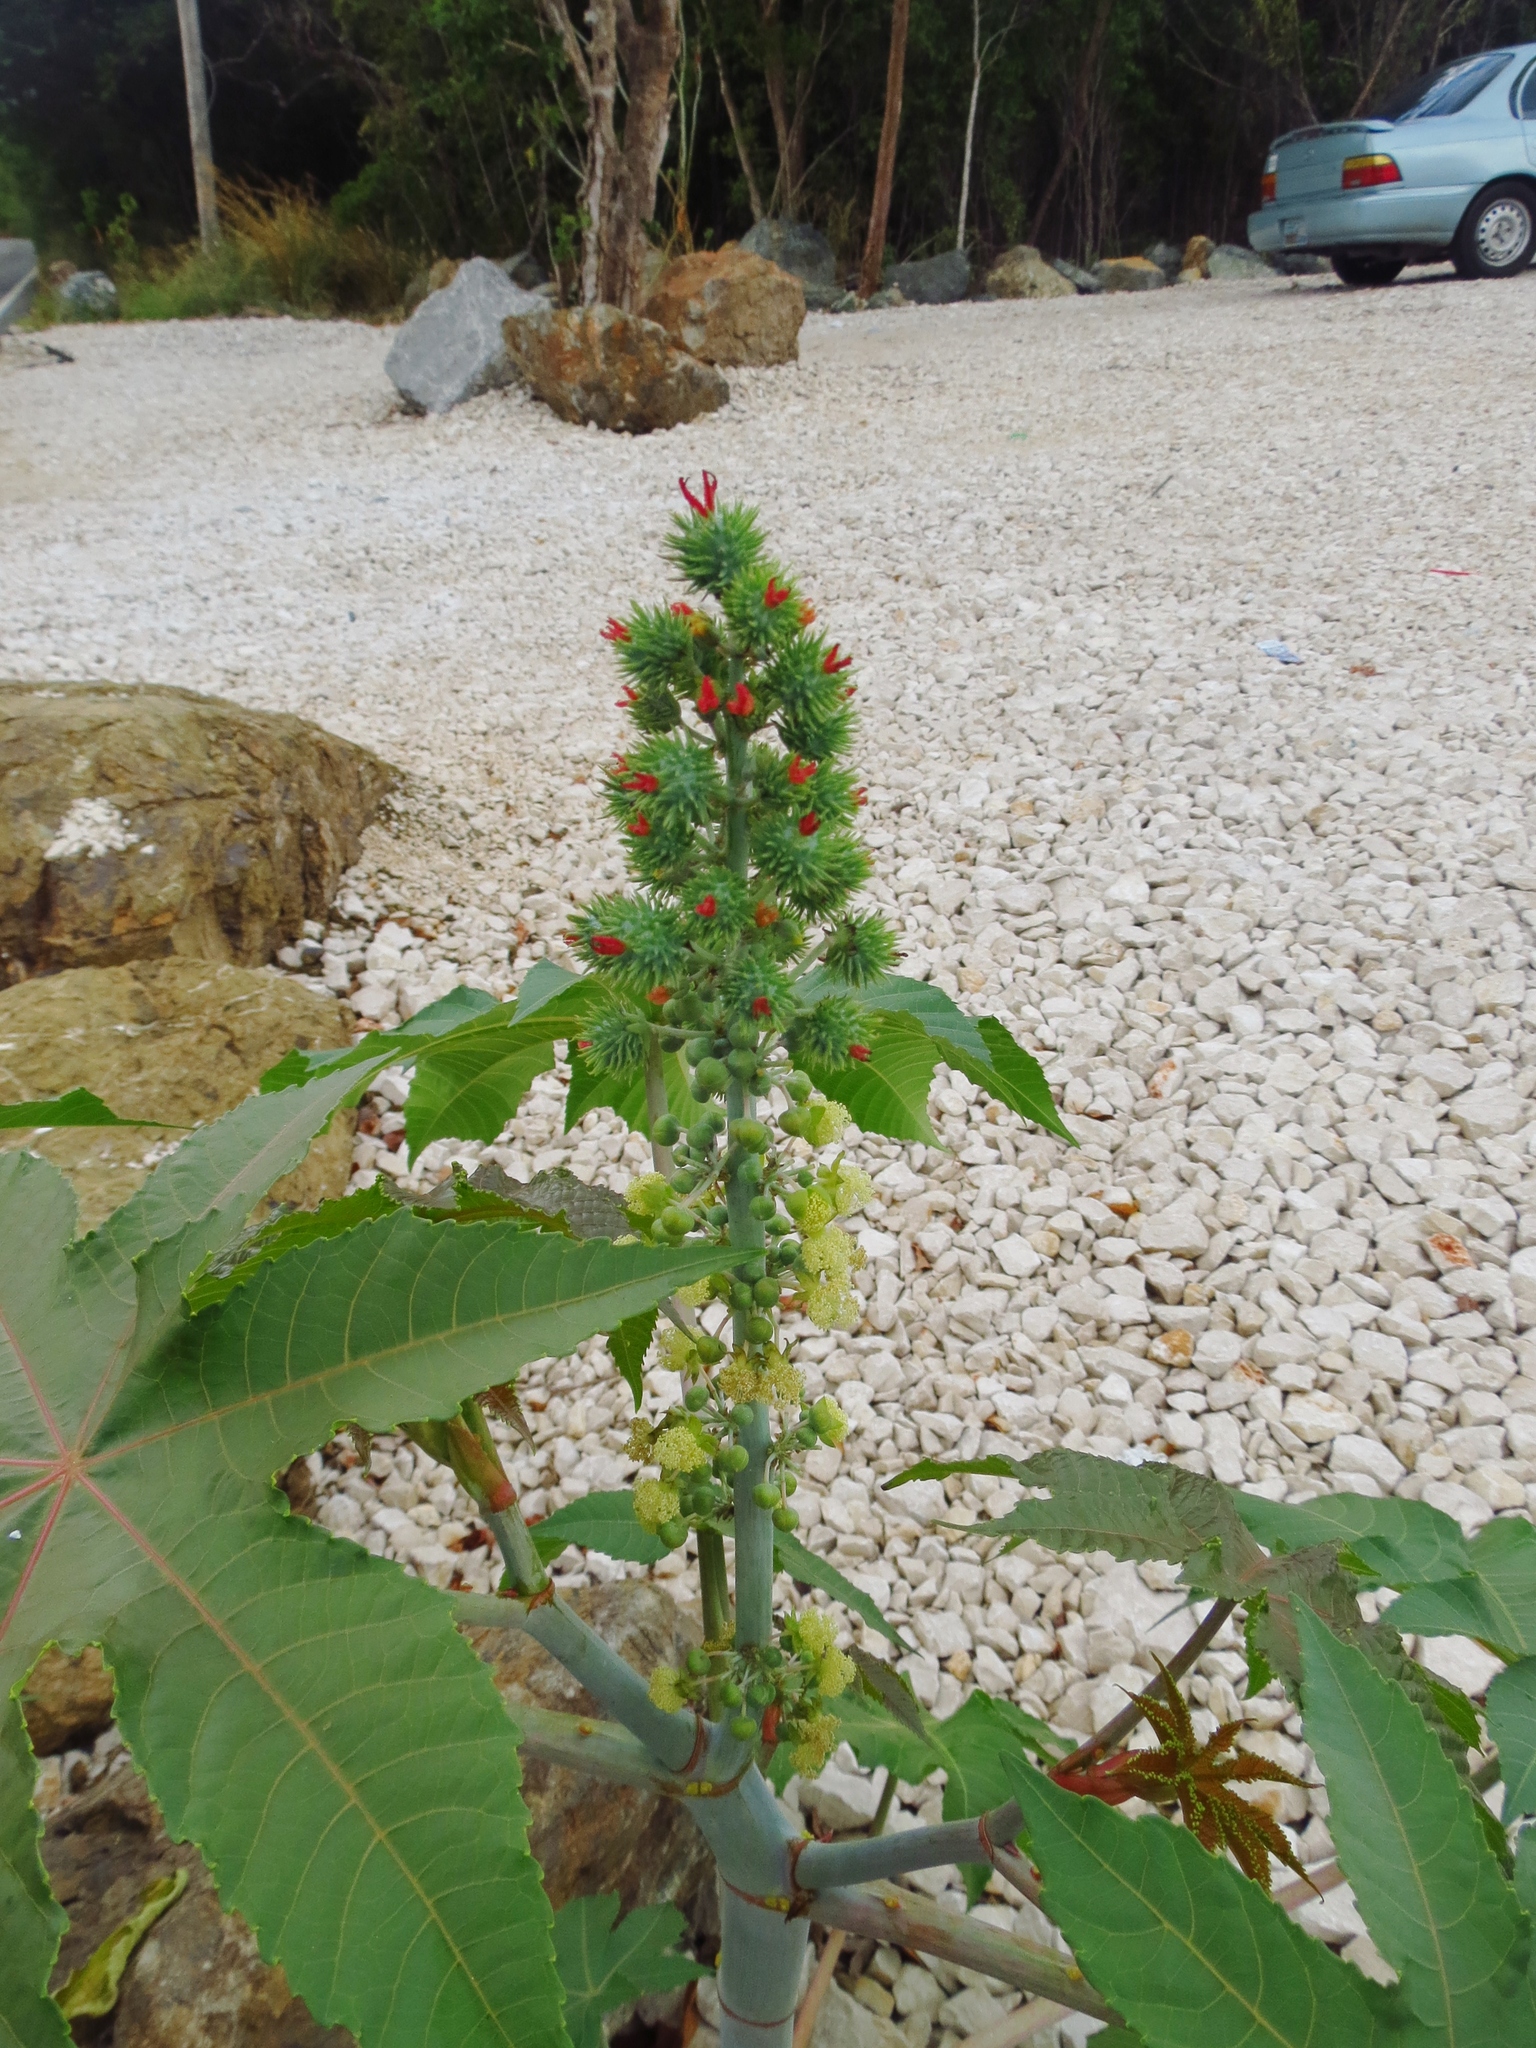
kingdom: Plantae
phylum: Tracheophyta
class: Magnoliopsida
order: Malpighiales
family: Euphorbiaceae
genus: Ricinus
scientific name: Ricinus communis
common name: Castor-oil-plant
